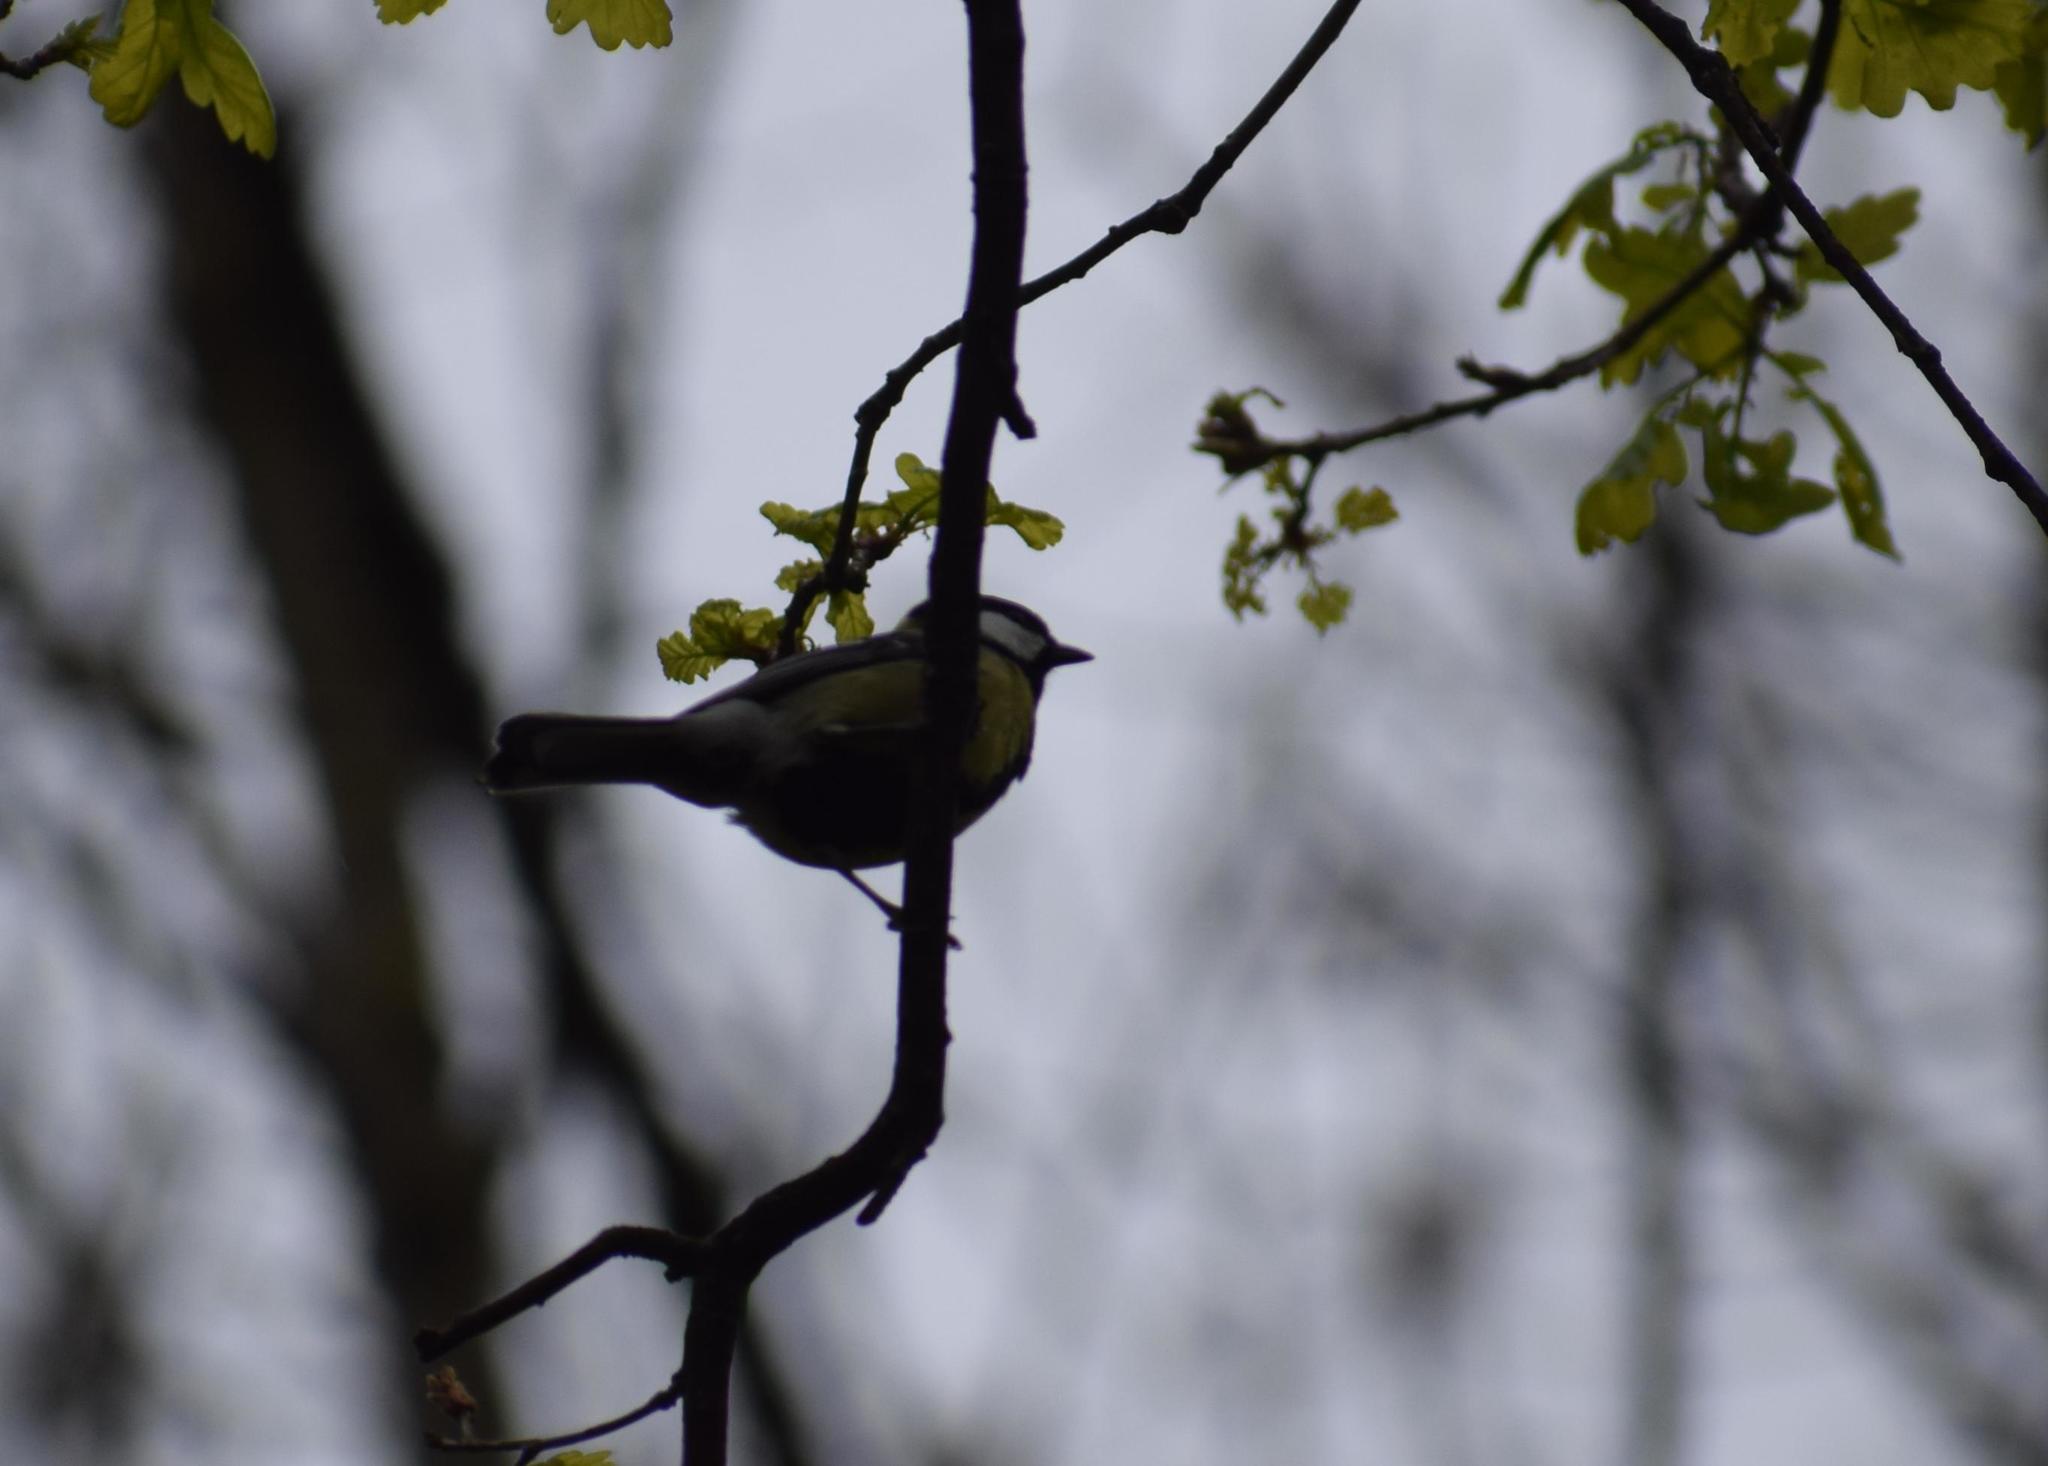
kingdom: Animalia
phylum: Chordata
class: Aves
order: Passeriformes
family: Paridae
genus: Parus
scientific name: Parus major
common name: Great tit
